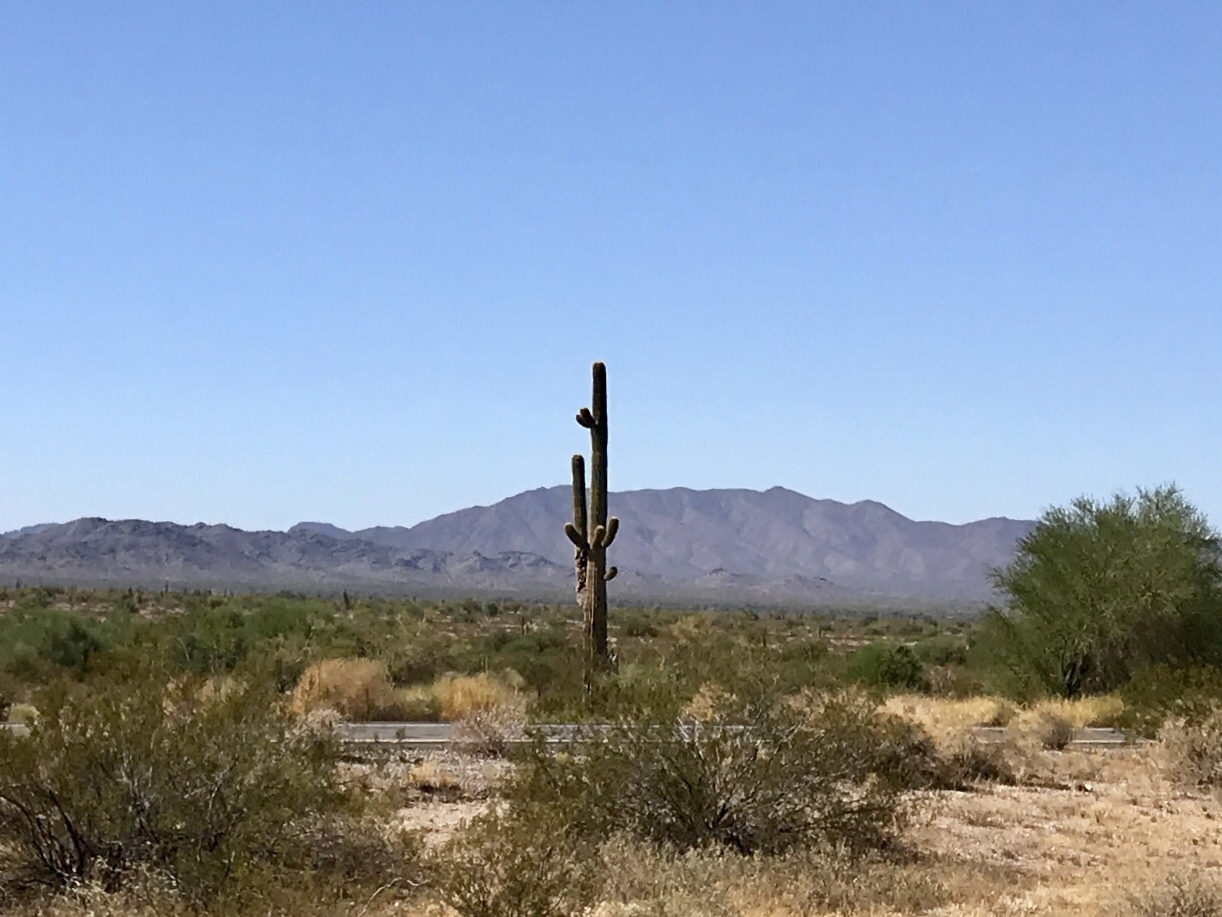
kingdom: Plantae
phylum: Tracheophyta
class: Magnoliopsida
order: Caryophyllales
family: Cactaceae
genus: Carnegiea
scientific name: Carnegiea gigantea
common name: Saguaro
